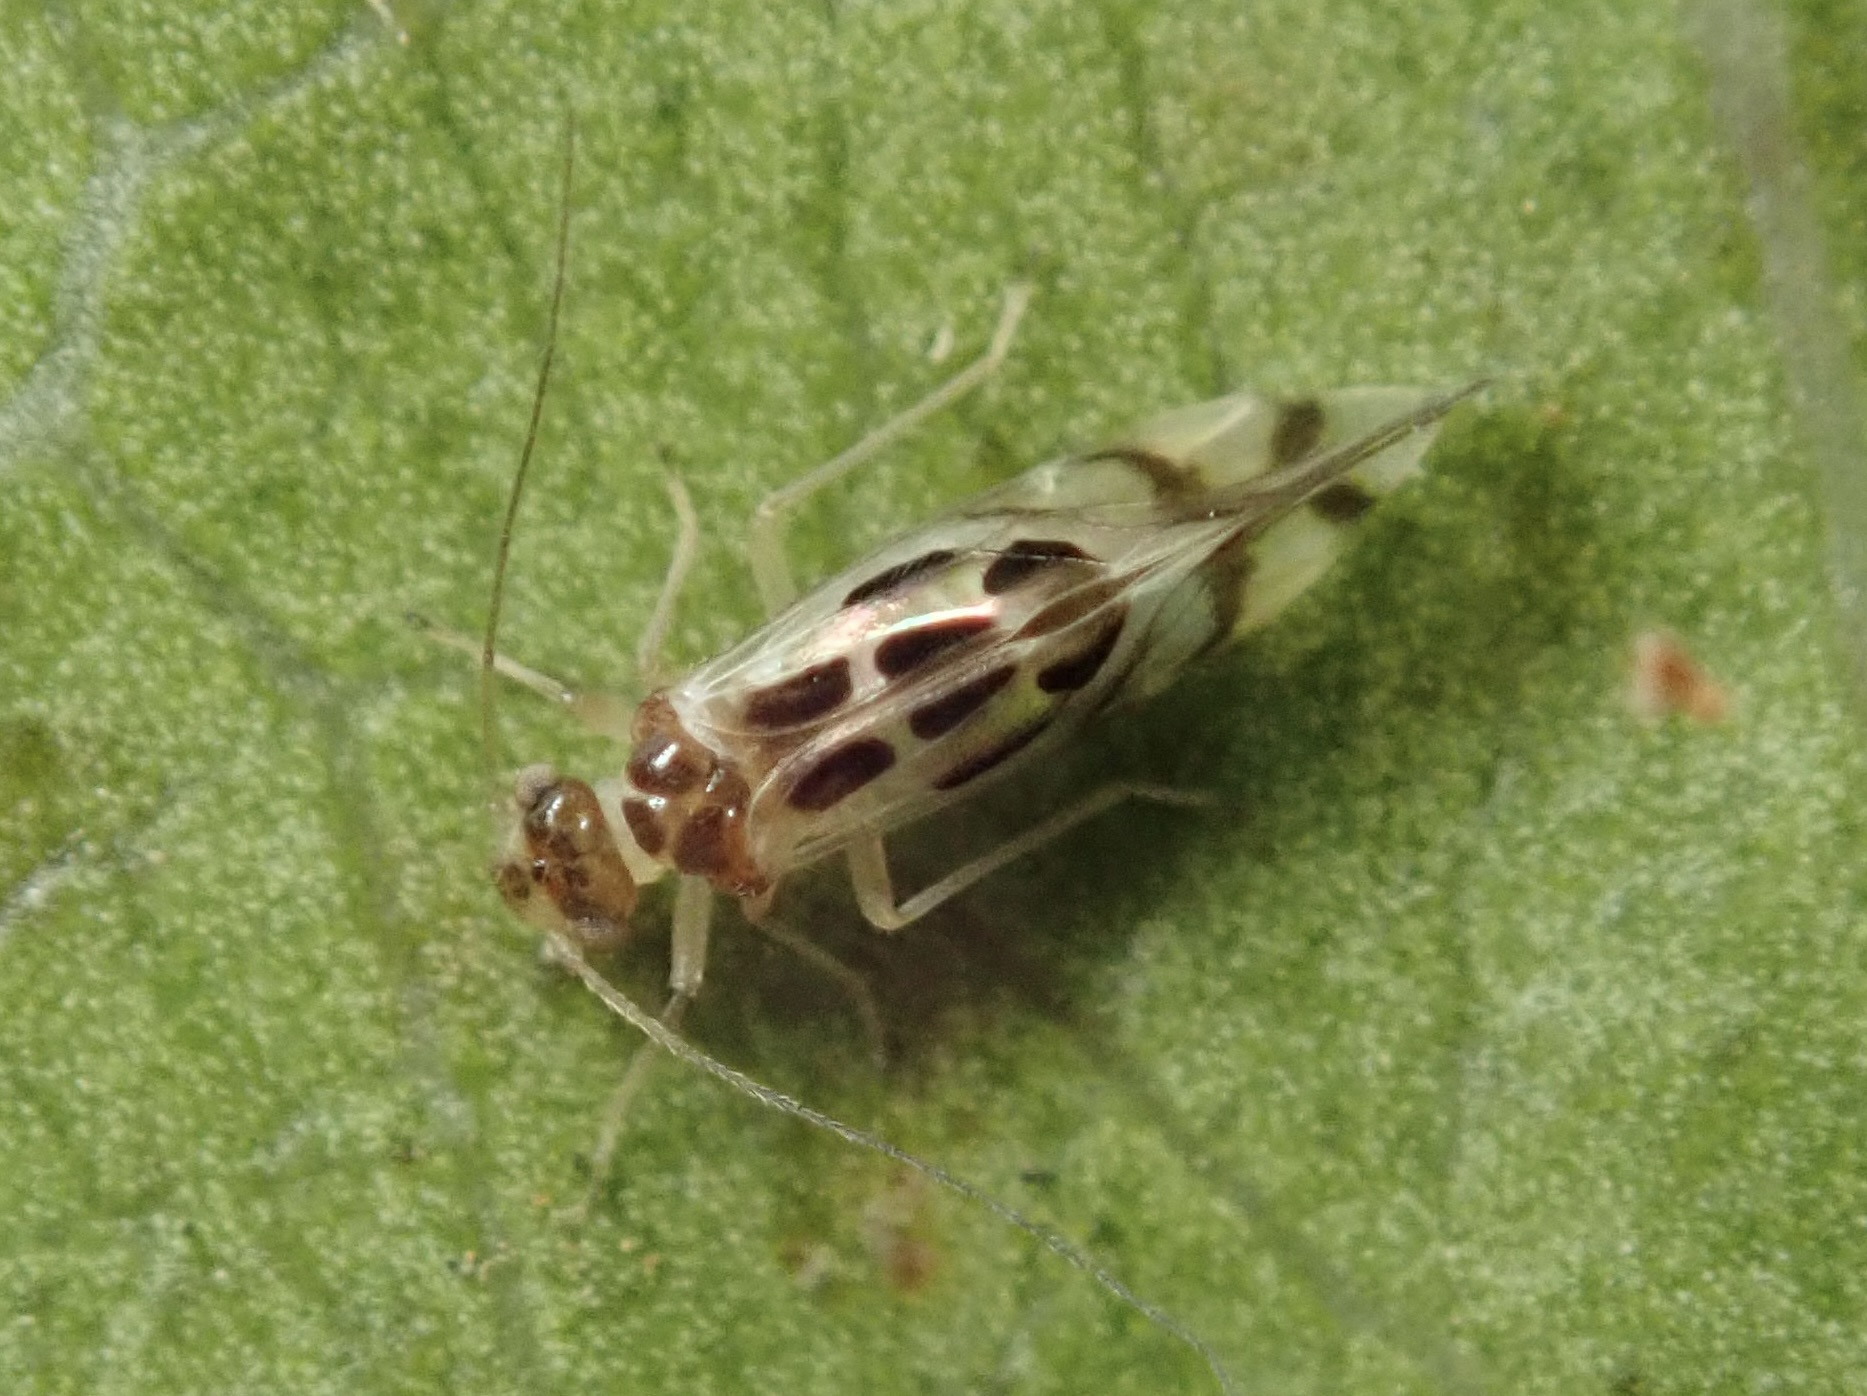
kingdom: Animalia
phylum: Arthropoda
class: Insecta
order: Psocodea
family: Stenopsocidae
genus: Graphopsocus
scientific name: Graphopsocus cruciatus
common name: Lizard bark louse
